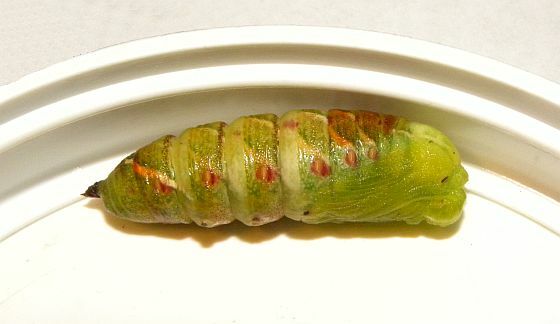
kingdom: Animalia
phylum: Arthropoda
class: Insecta
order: Lepidoptera
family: Sphingidae
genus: Smerinthus
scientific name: Smerinthus jamaicensis
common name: Twin spotted sphinx
